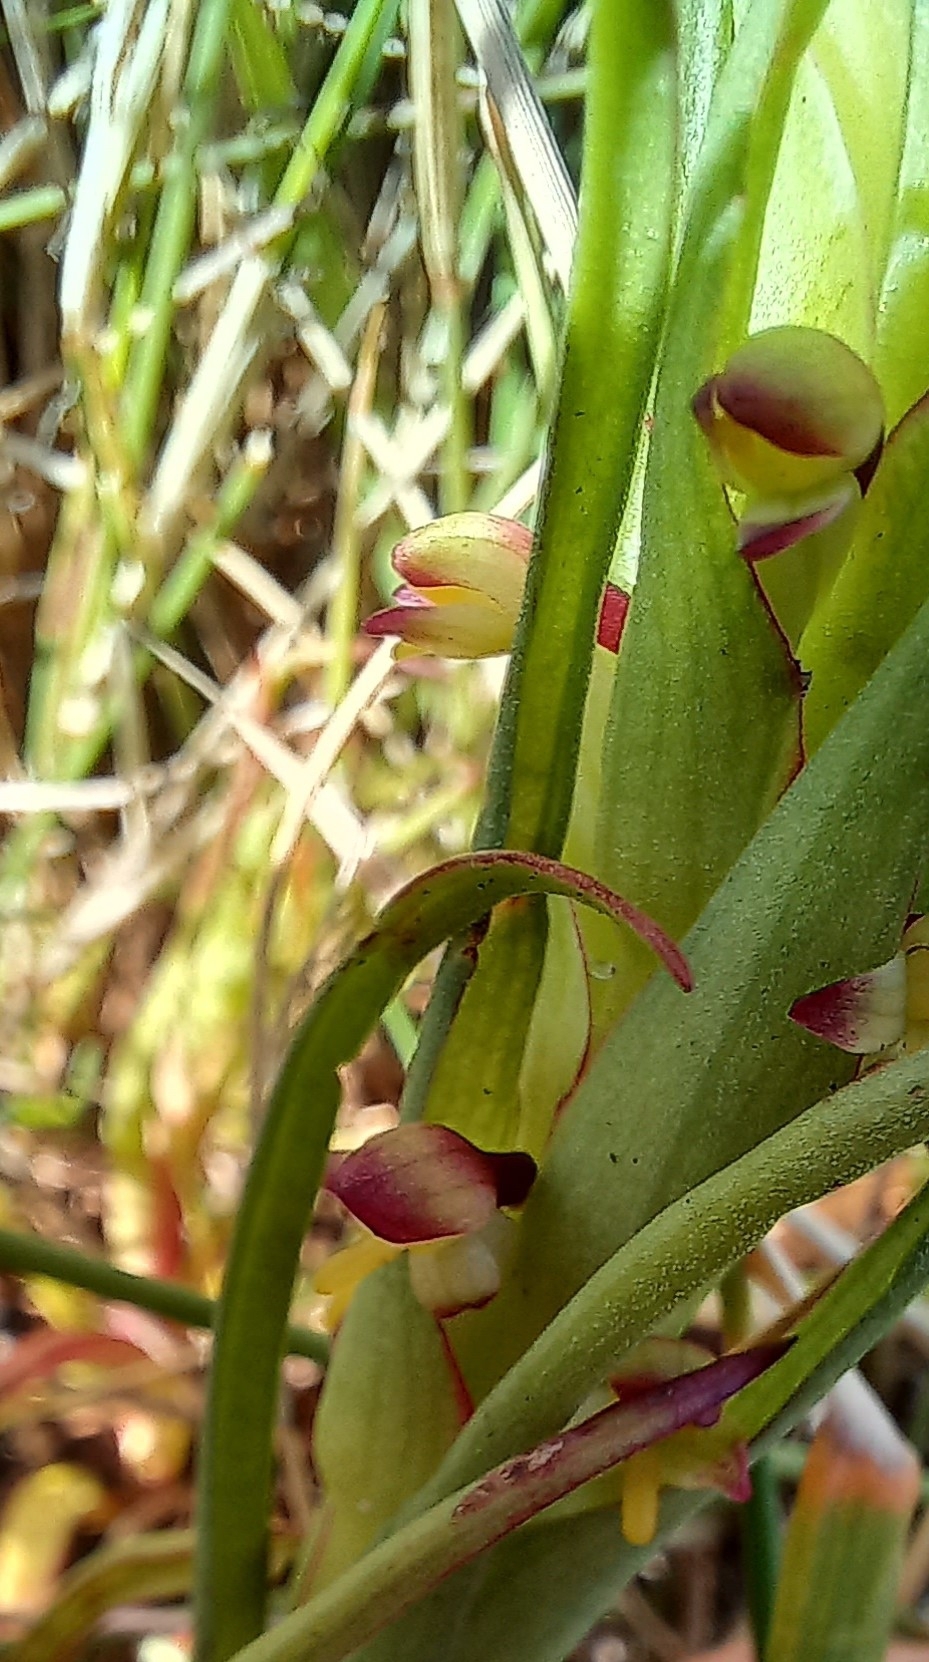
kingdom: Plantae
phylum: Tracheophyta
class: Liliopsida
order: Asparagales
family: Orchidaceae
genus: Disa
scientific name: Disa bracteata
